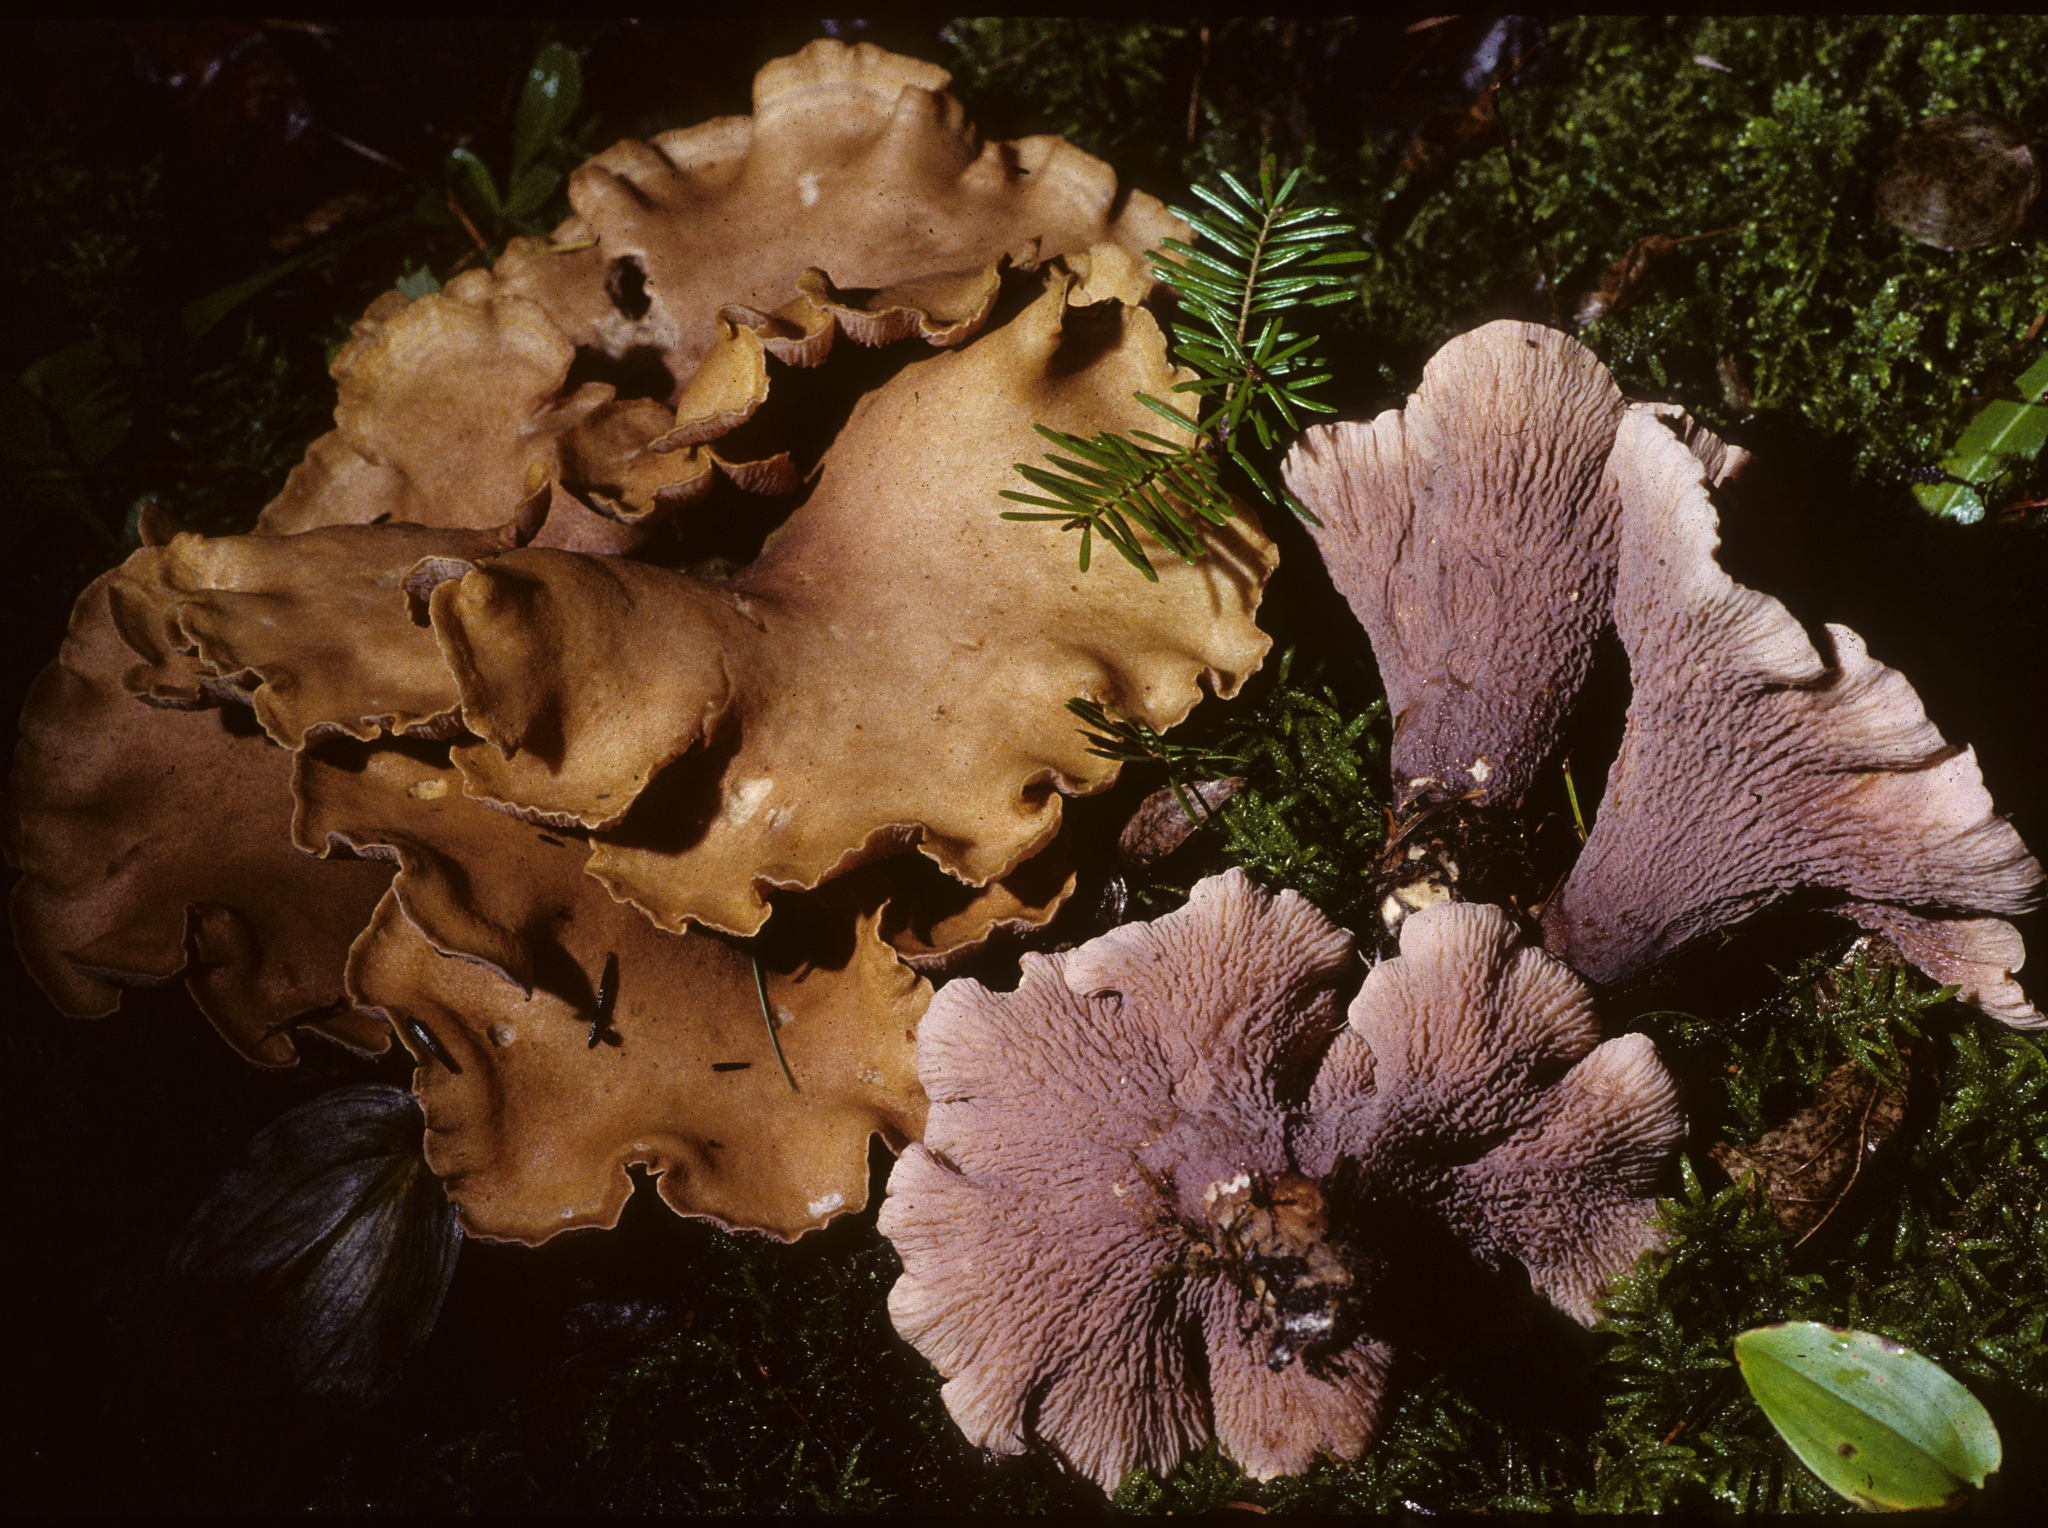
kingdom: Fungi
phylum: Basidiomycota
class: Agaricomycetes
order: Gomphales
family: Gomphaceae
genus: Gomphus
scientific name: Gomphus clavatus
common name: Pig's ear
